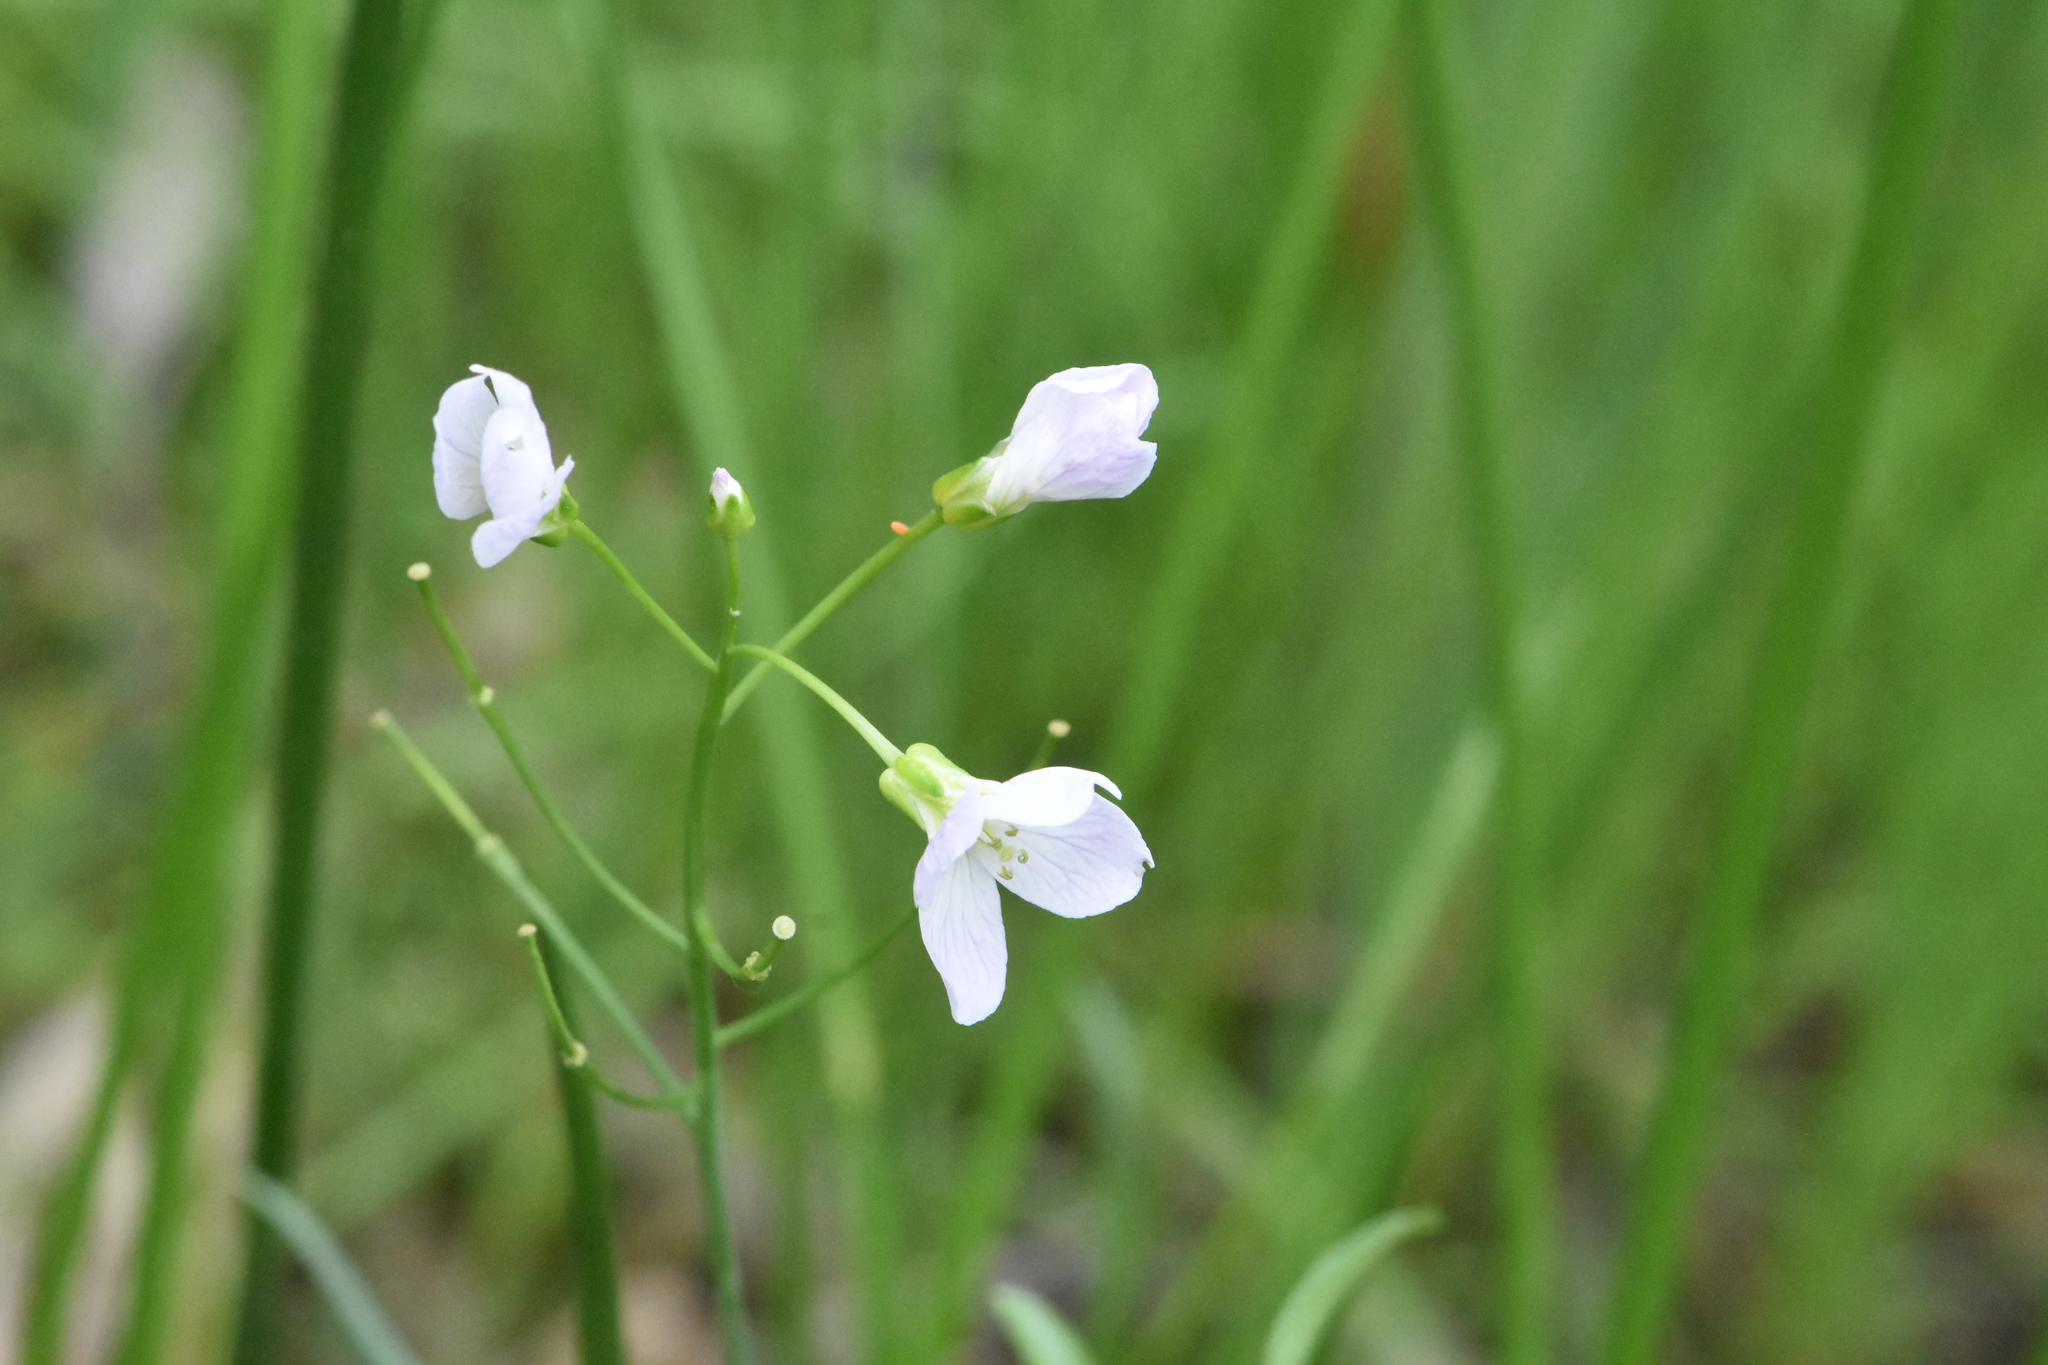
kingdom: Plantae
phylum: Tracheophyta
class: Magnoliopsida
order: Brassicales
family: Brassicaceae
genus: Cardamine
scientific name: Cardamine dentata
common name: Toothed bittercress
